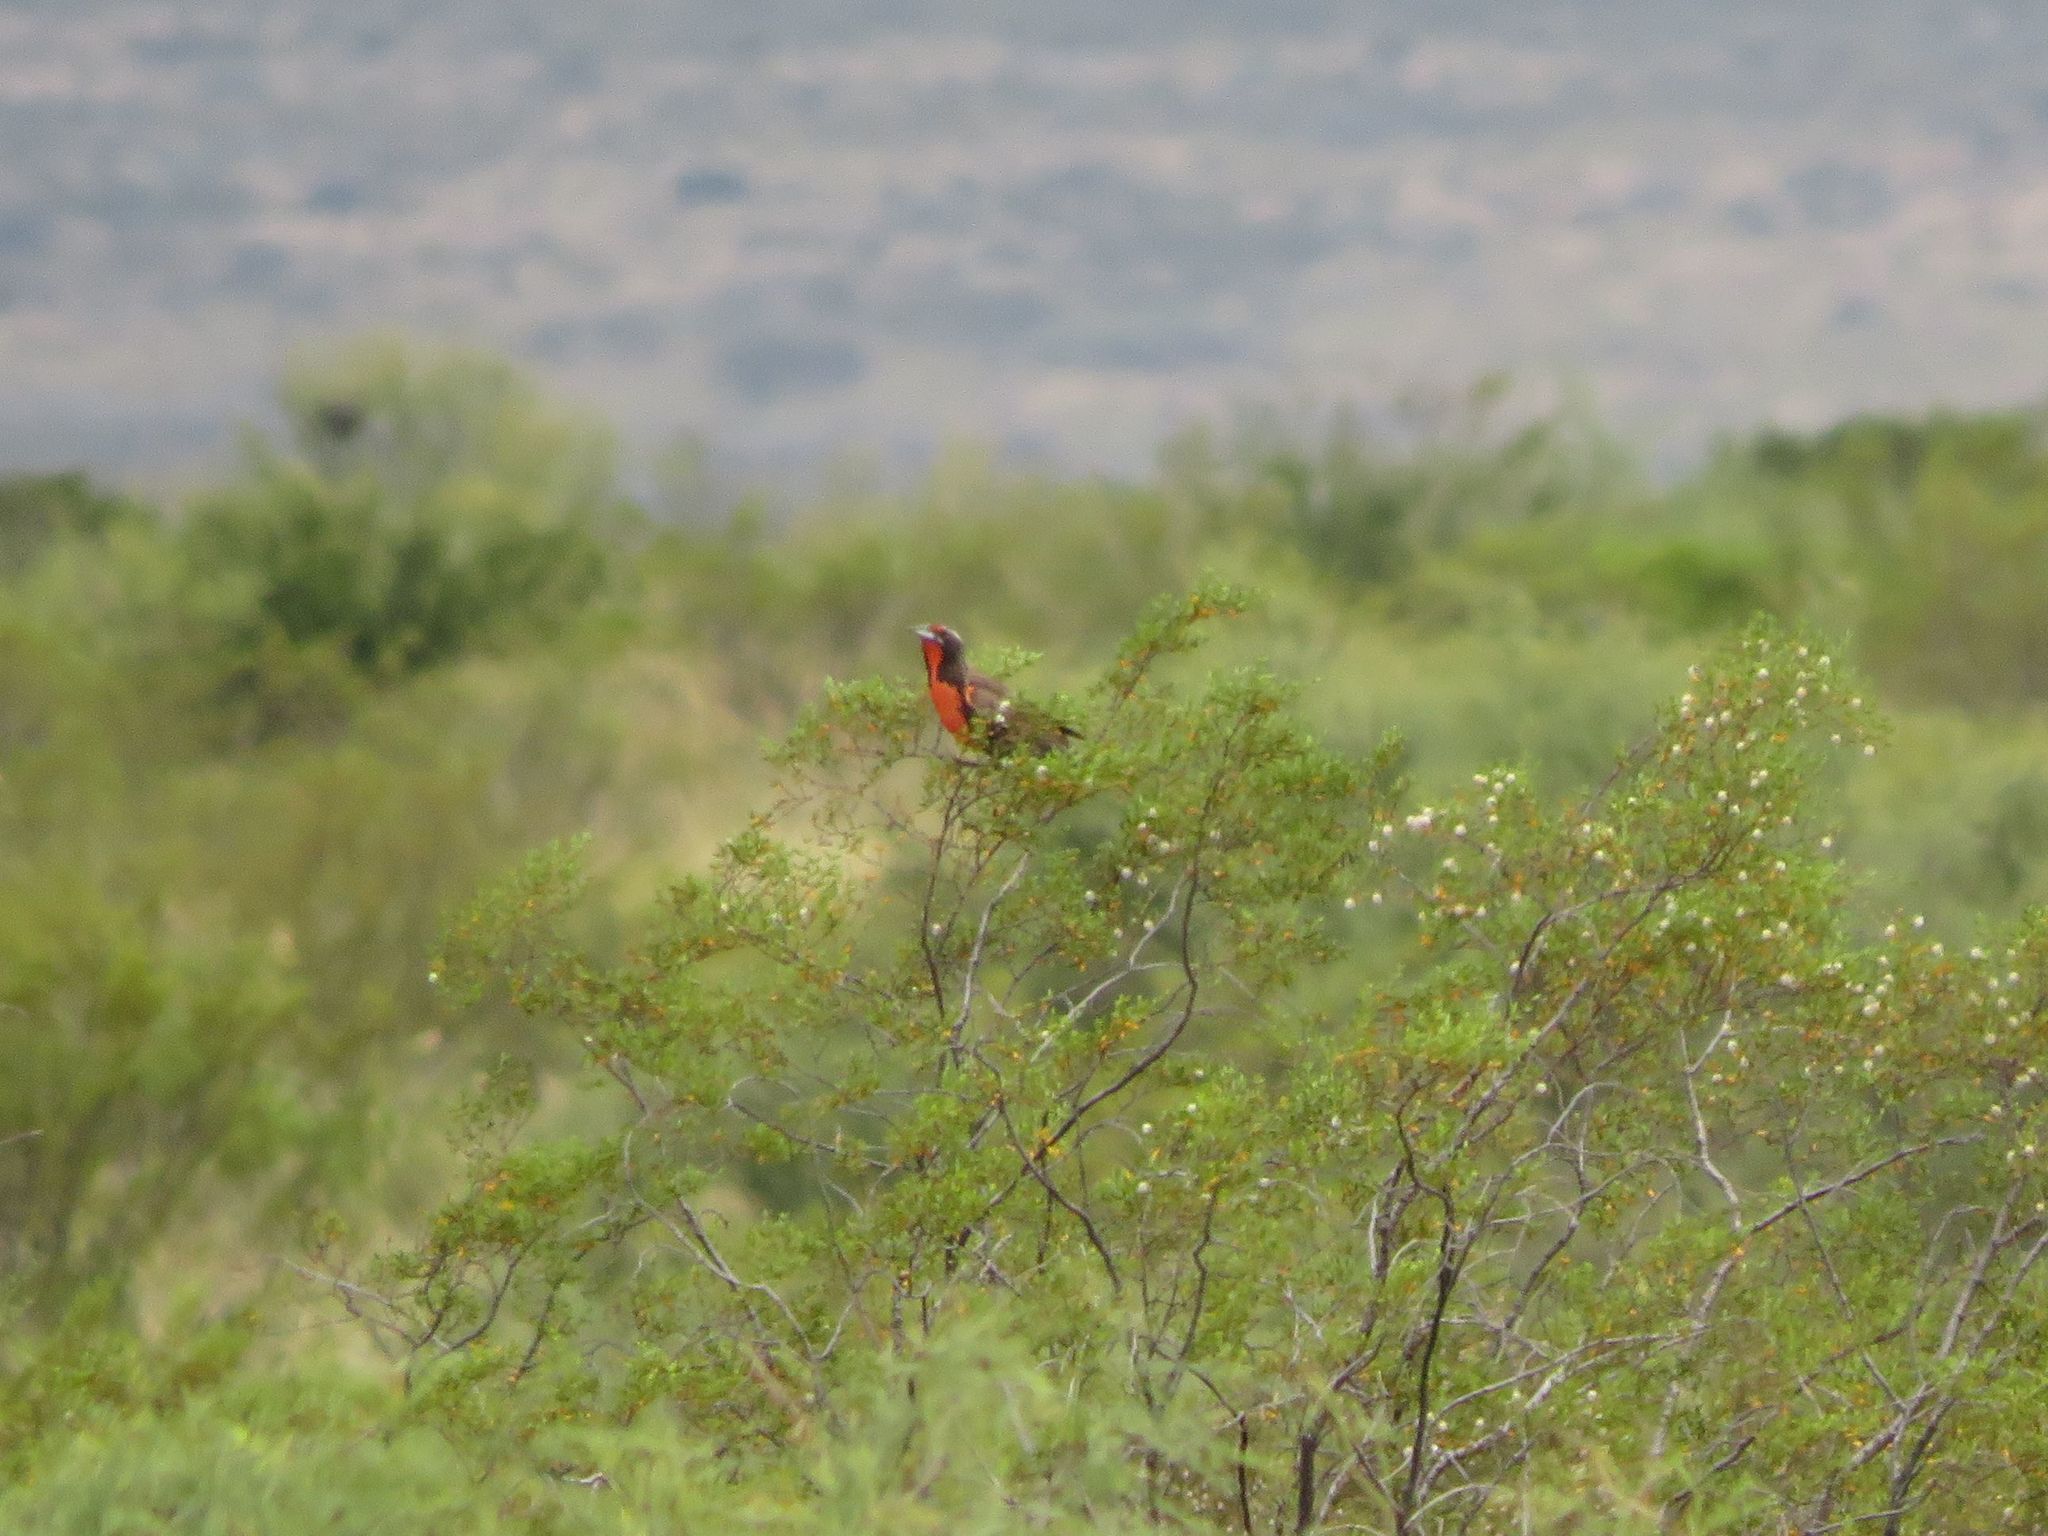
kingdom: Animalia
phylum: Chordata
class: Aves
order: Passeriformes
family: Icteridae
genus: Sturnella
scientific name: Sturnella loyca
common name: Long-tailed meadowlark
